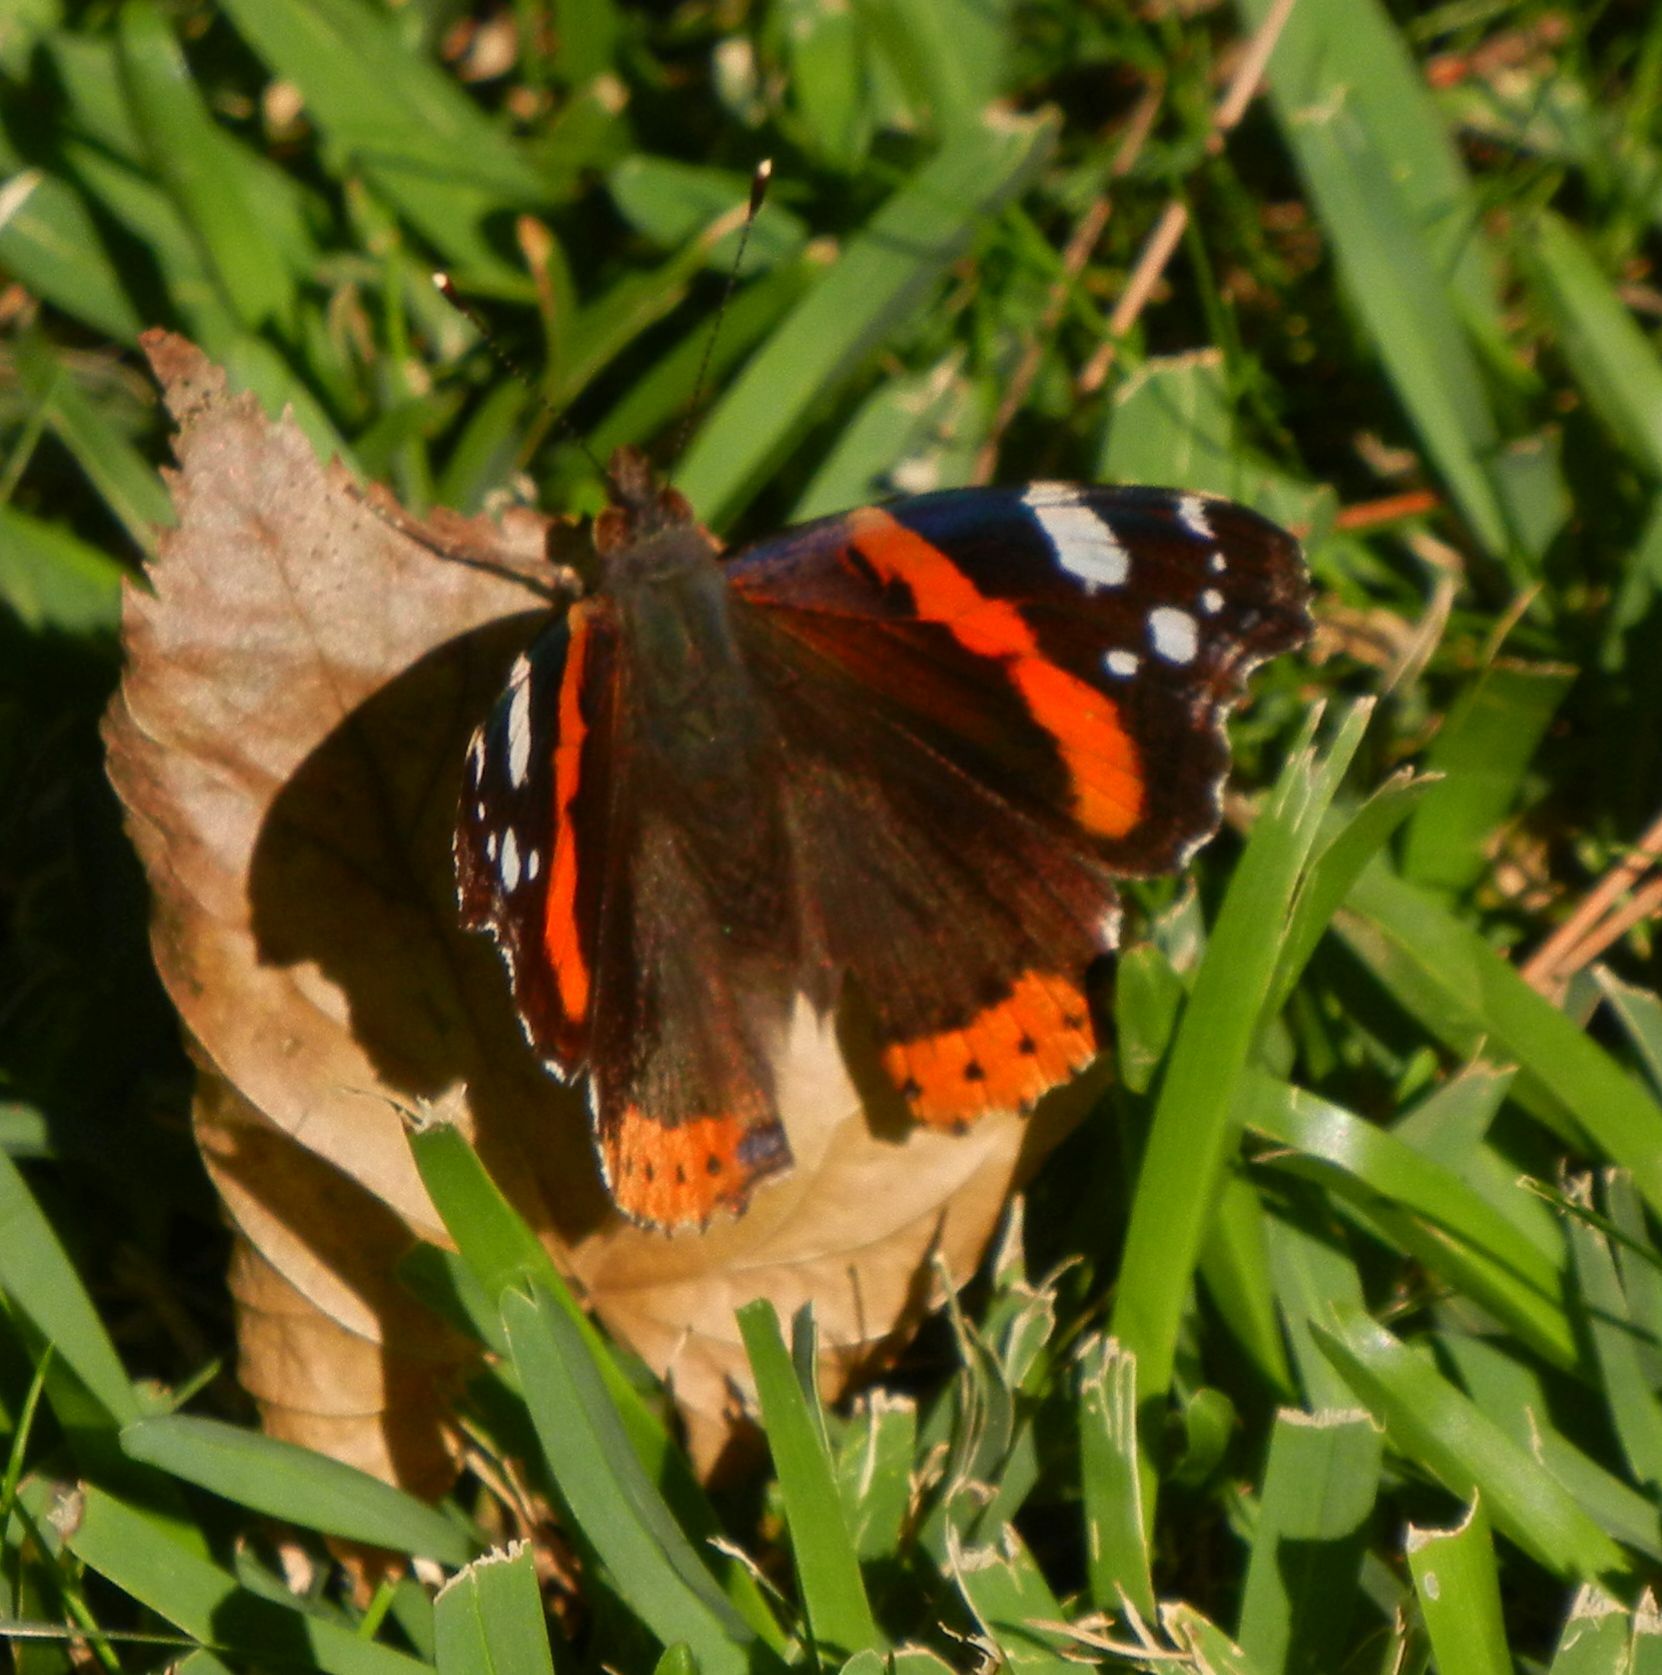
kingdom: Animalia
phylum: Arthropoda
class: Insecta
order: Lepidoptera
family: Nymphalidae
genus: Vanessa
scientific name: Vanessa atalanta
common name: Red admiral
